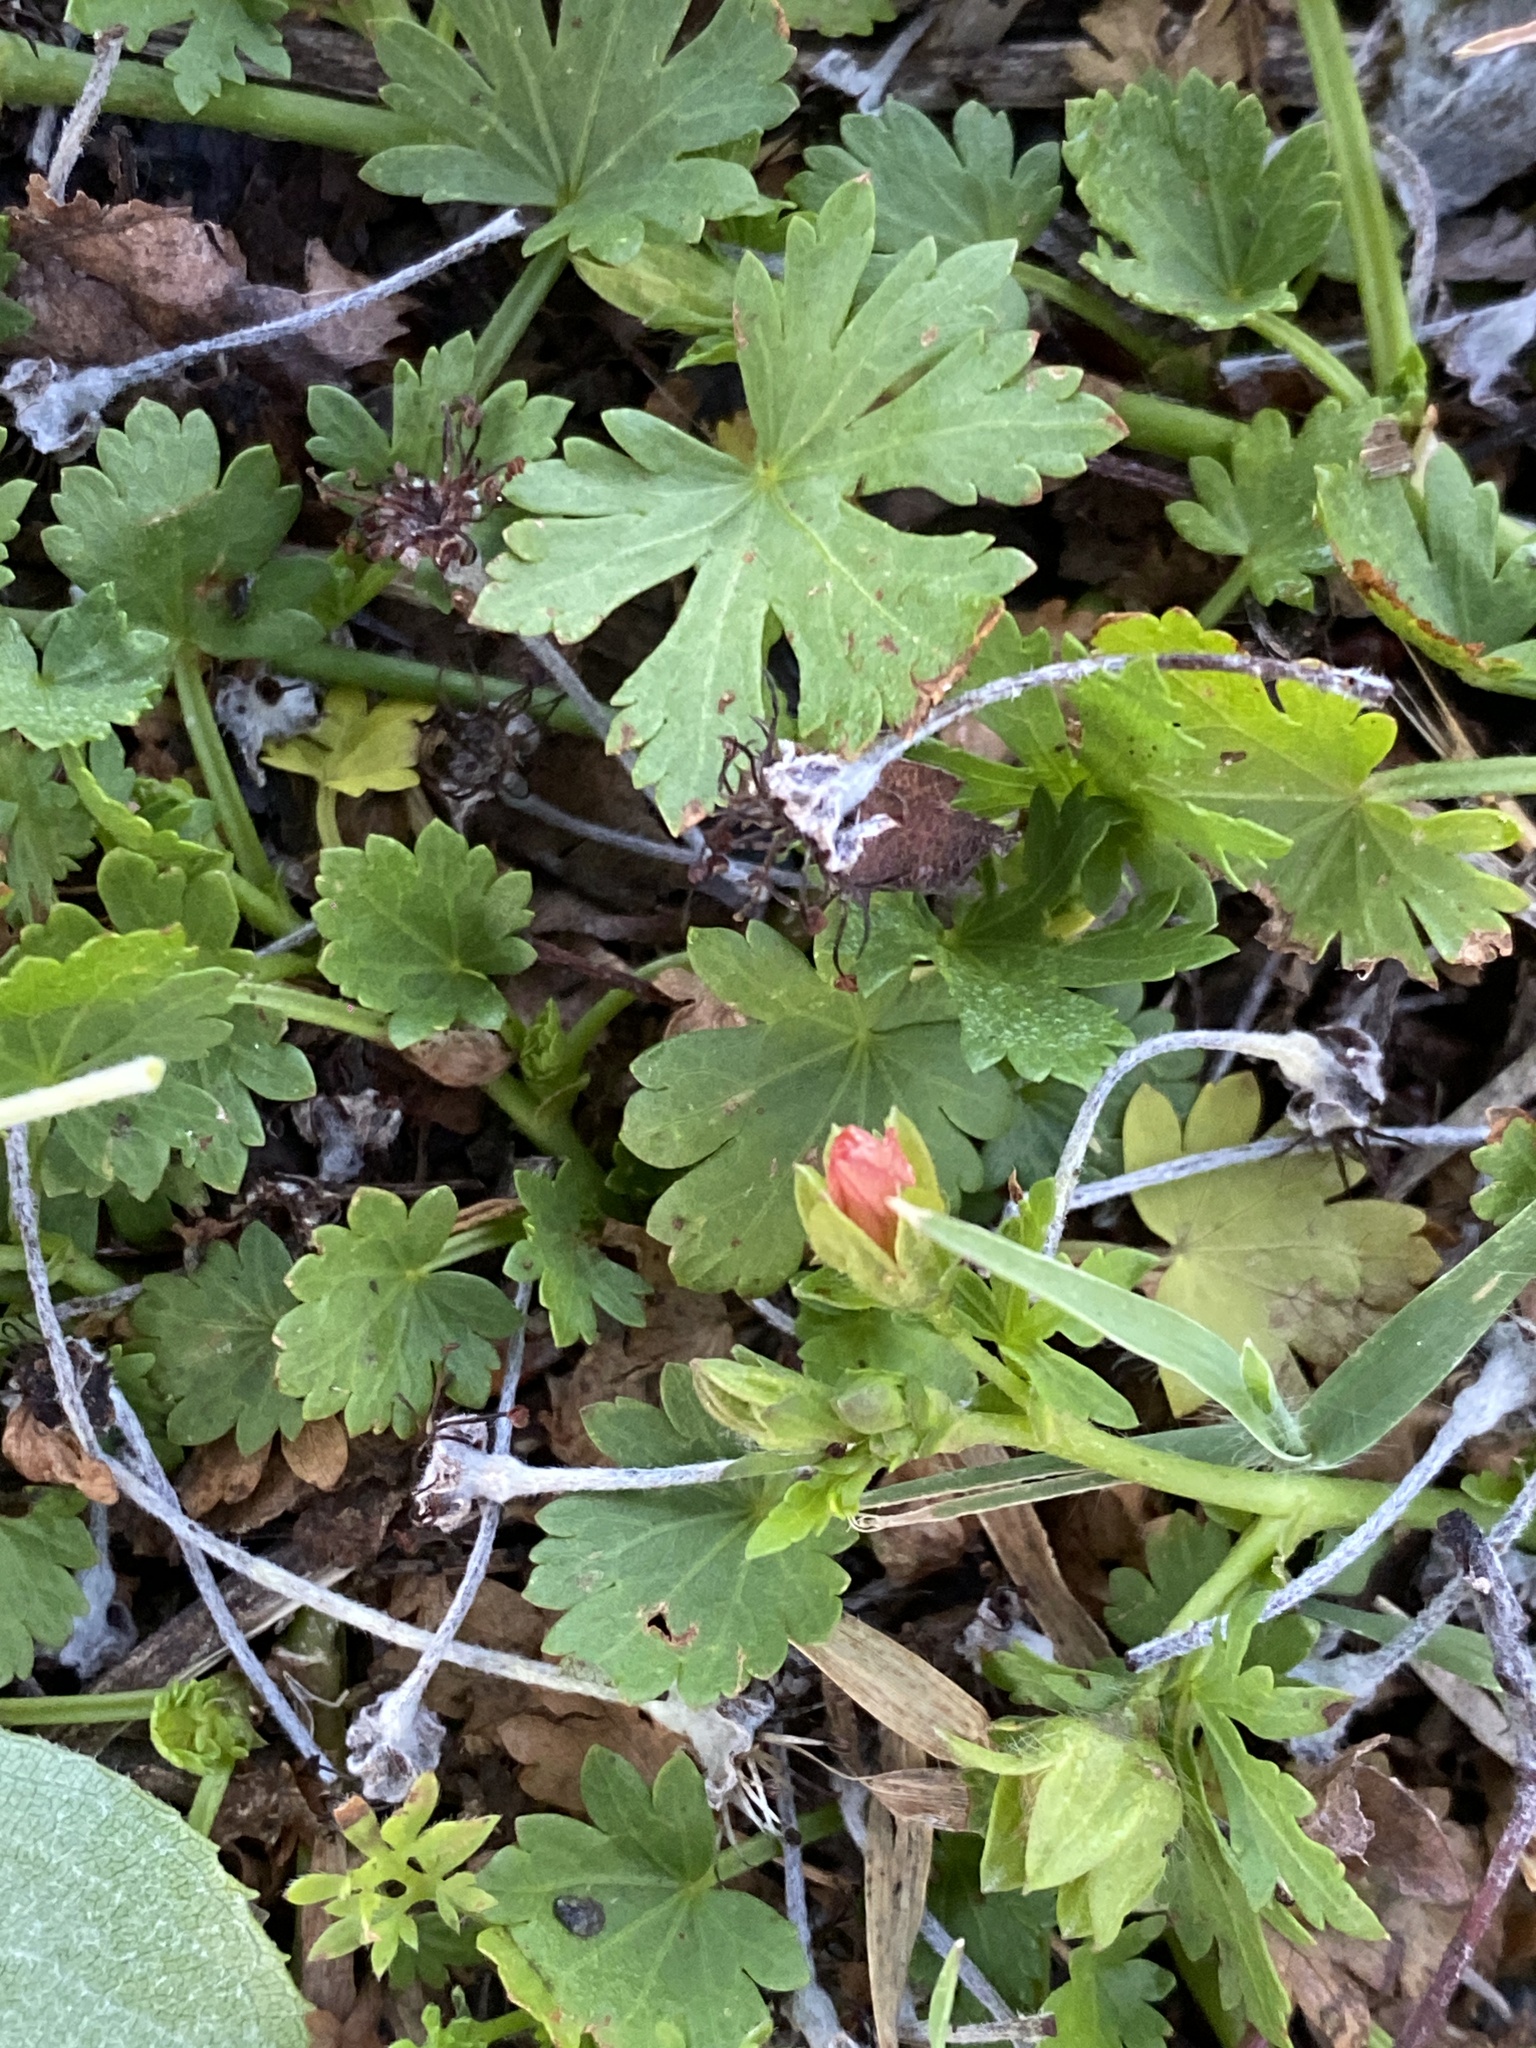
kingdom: Plantae
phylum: Tracheophyta
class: Magnoliopsida
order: Malvales
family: Malvaceae
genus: Modiola
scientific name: Modiola caroliniana
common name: Carolina bristlemallow
